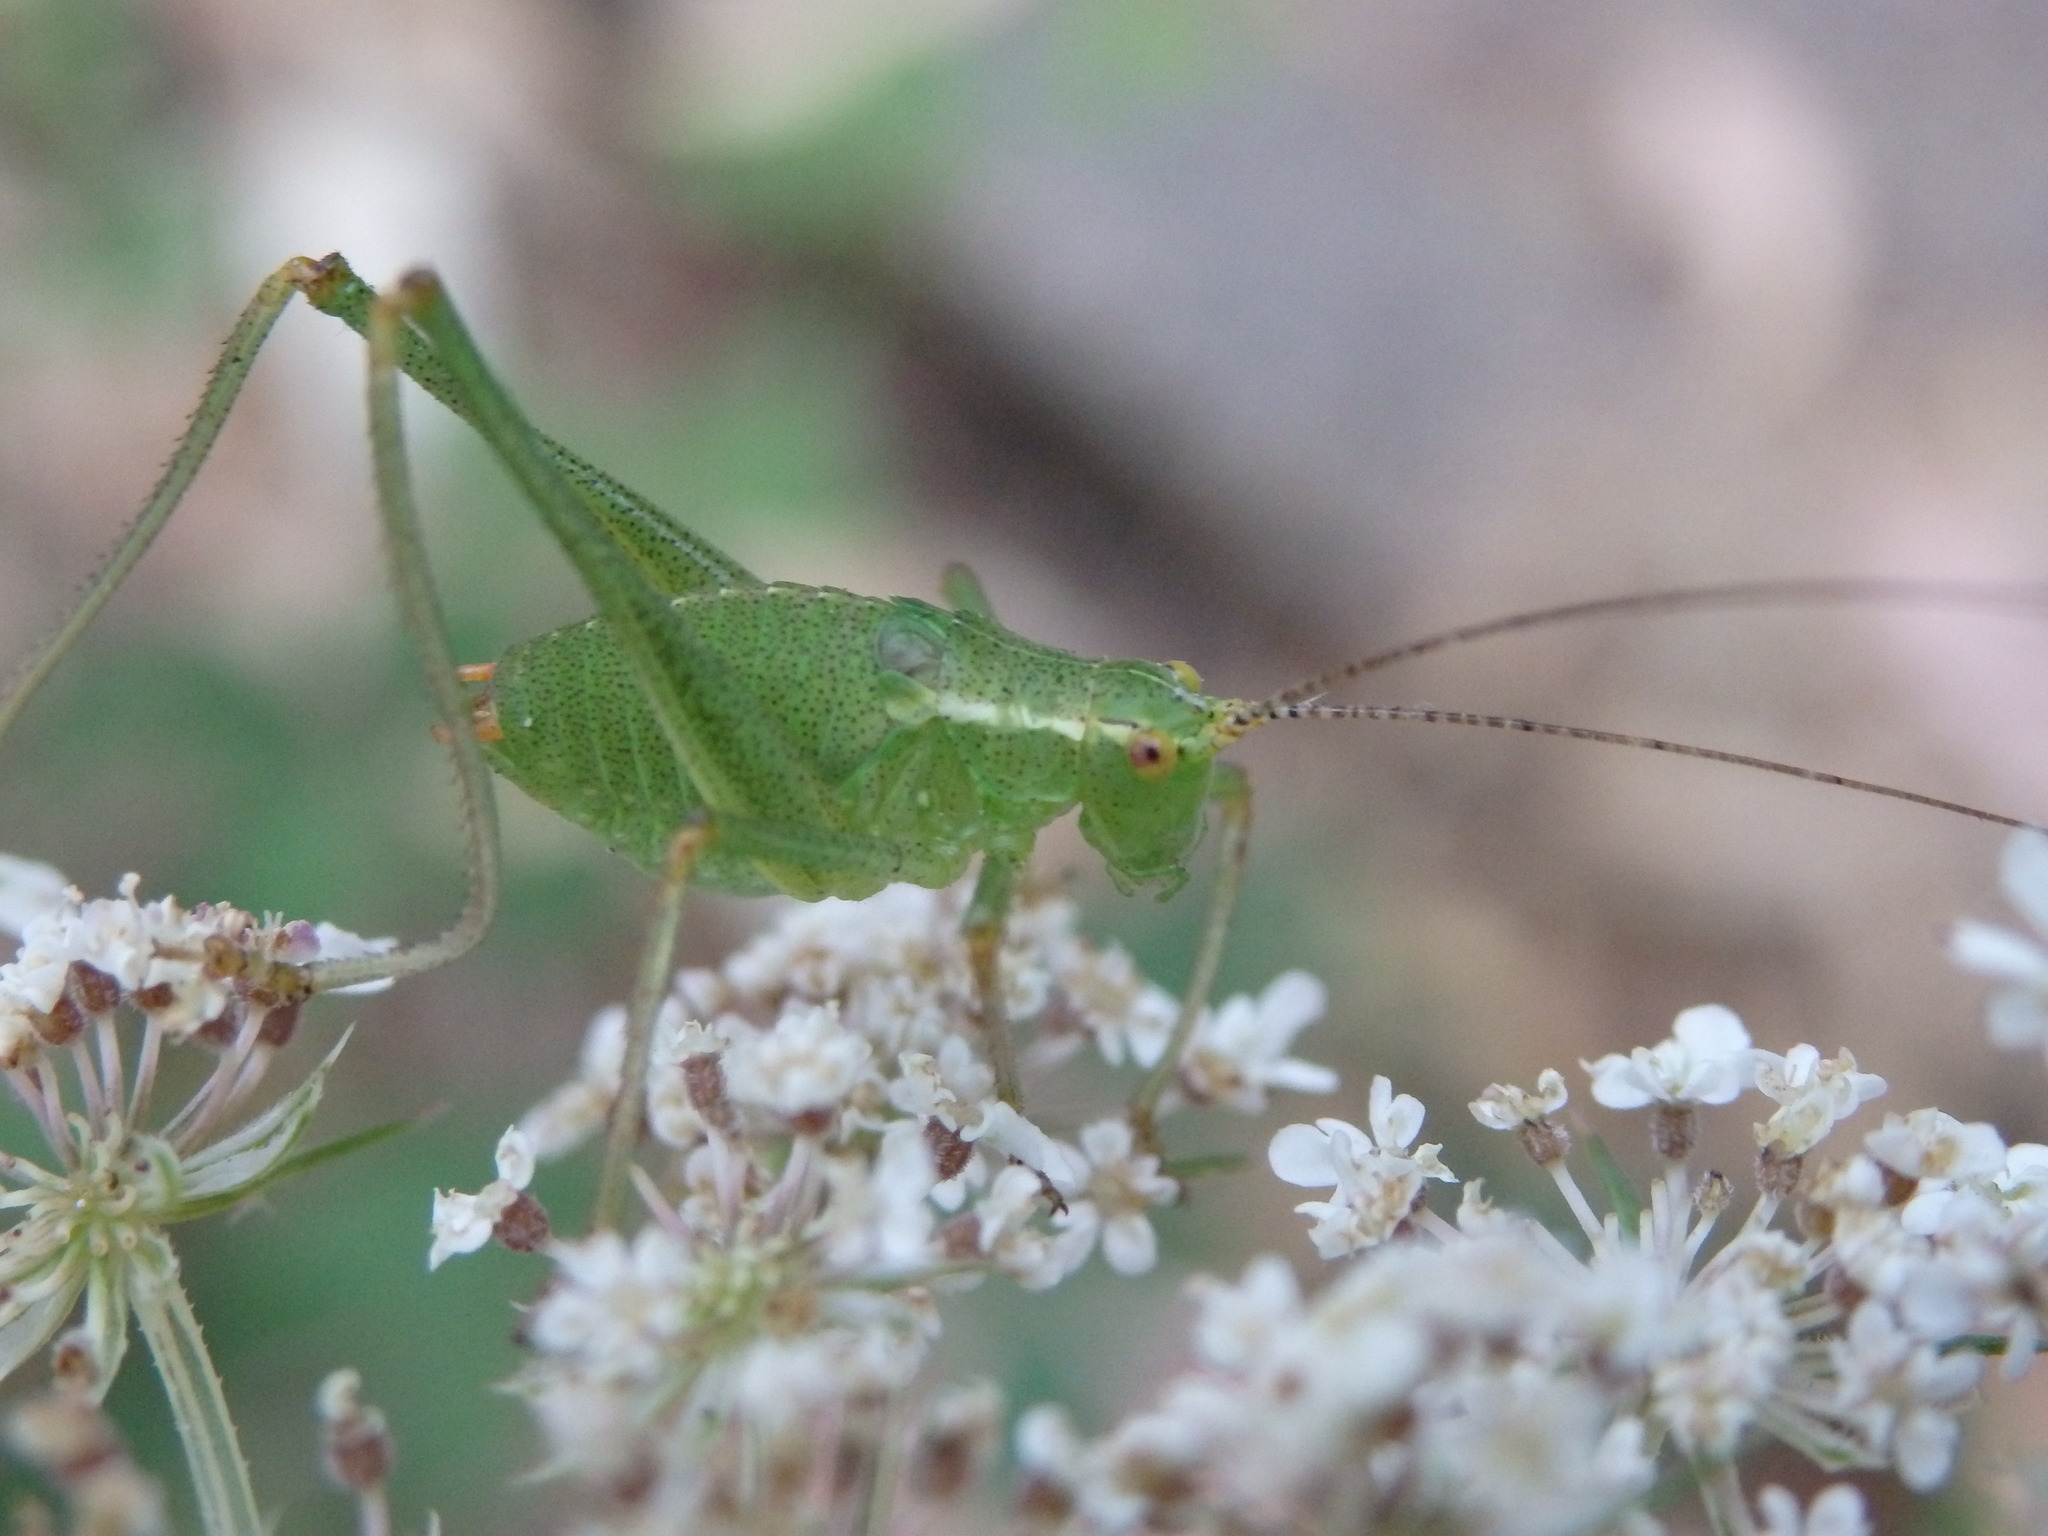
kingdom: Animalia
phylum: Arthropoda
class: Insecta
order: Orthoptera
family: Tettigoniidae
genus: Leptophyes
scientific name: Leptophyes punctatissima
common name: Speckled bush-cricket
